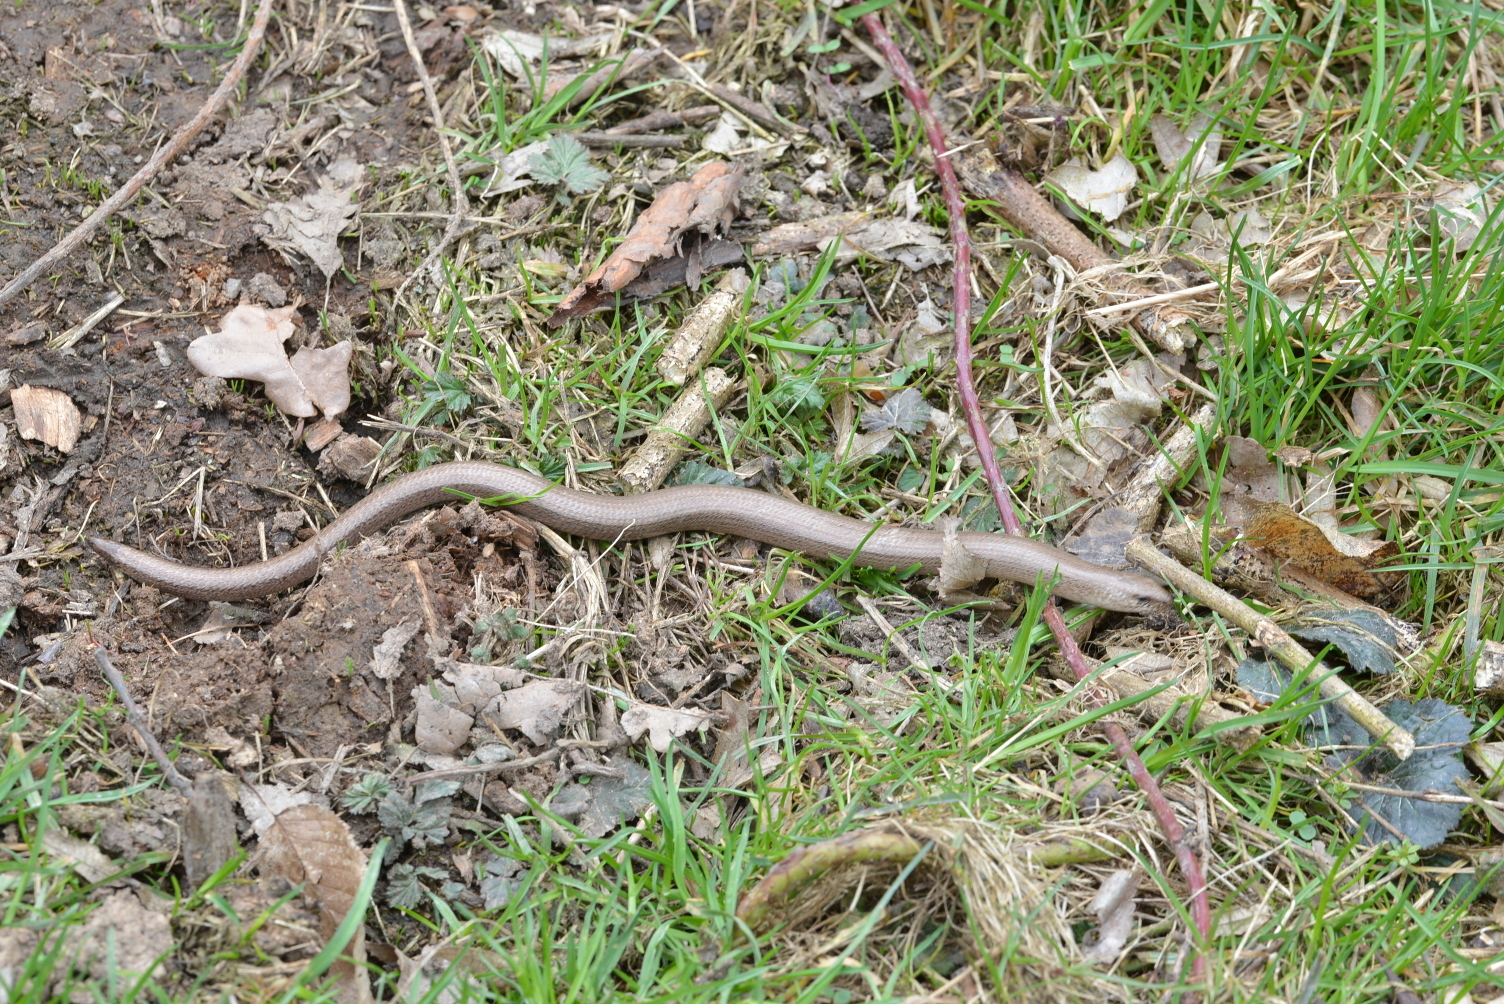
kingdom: Animalia
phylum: Chordata
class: Squamata
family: Anguidae
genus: Anguis
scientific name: Anguis fragilis
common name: Slow worm
